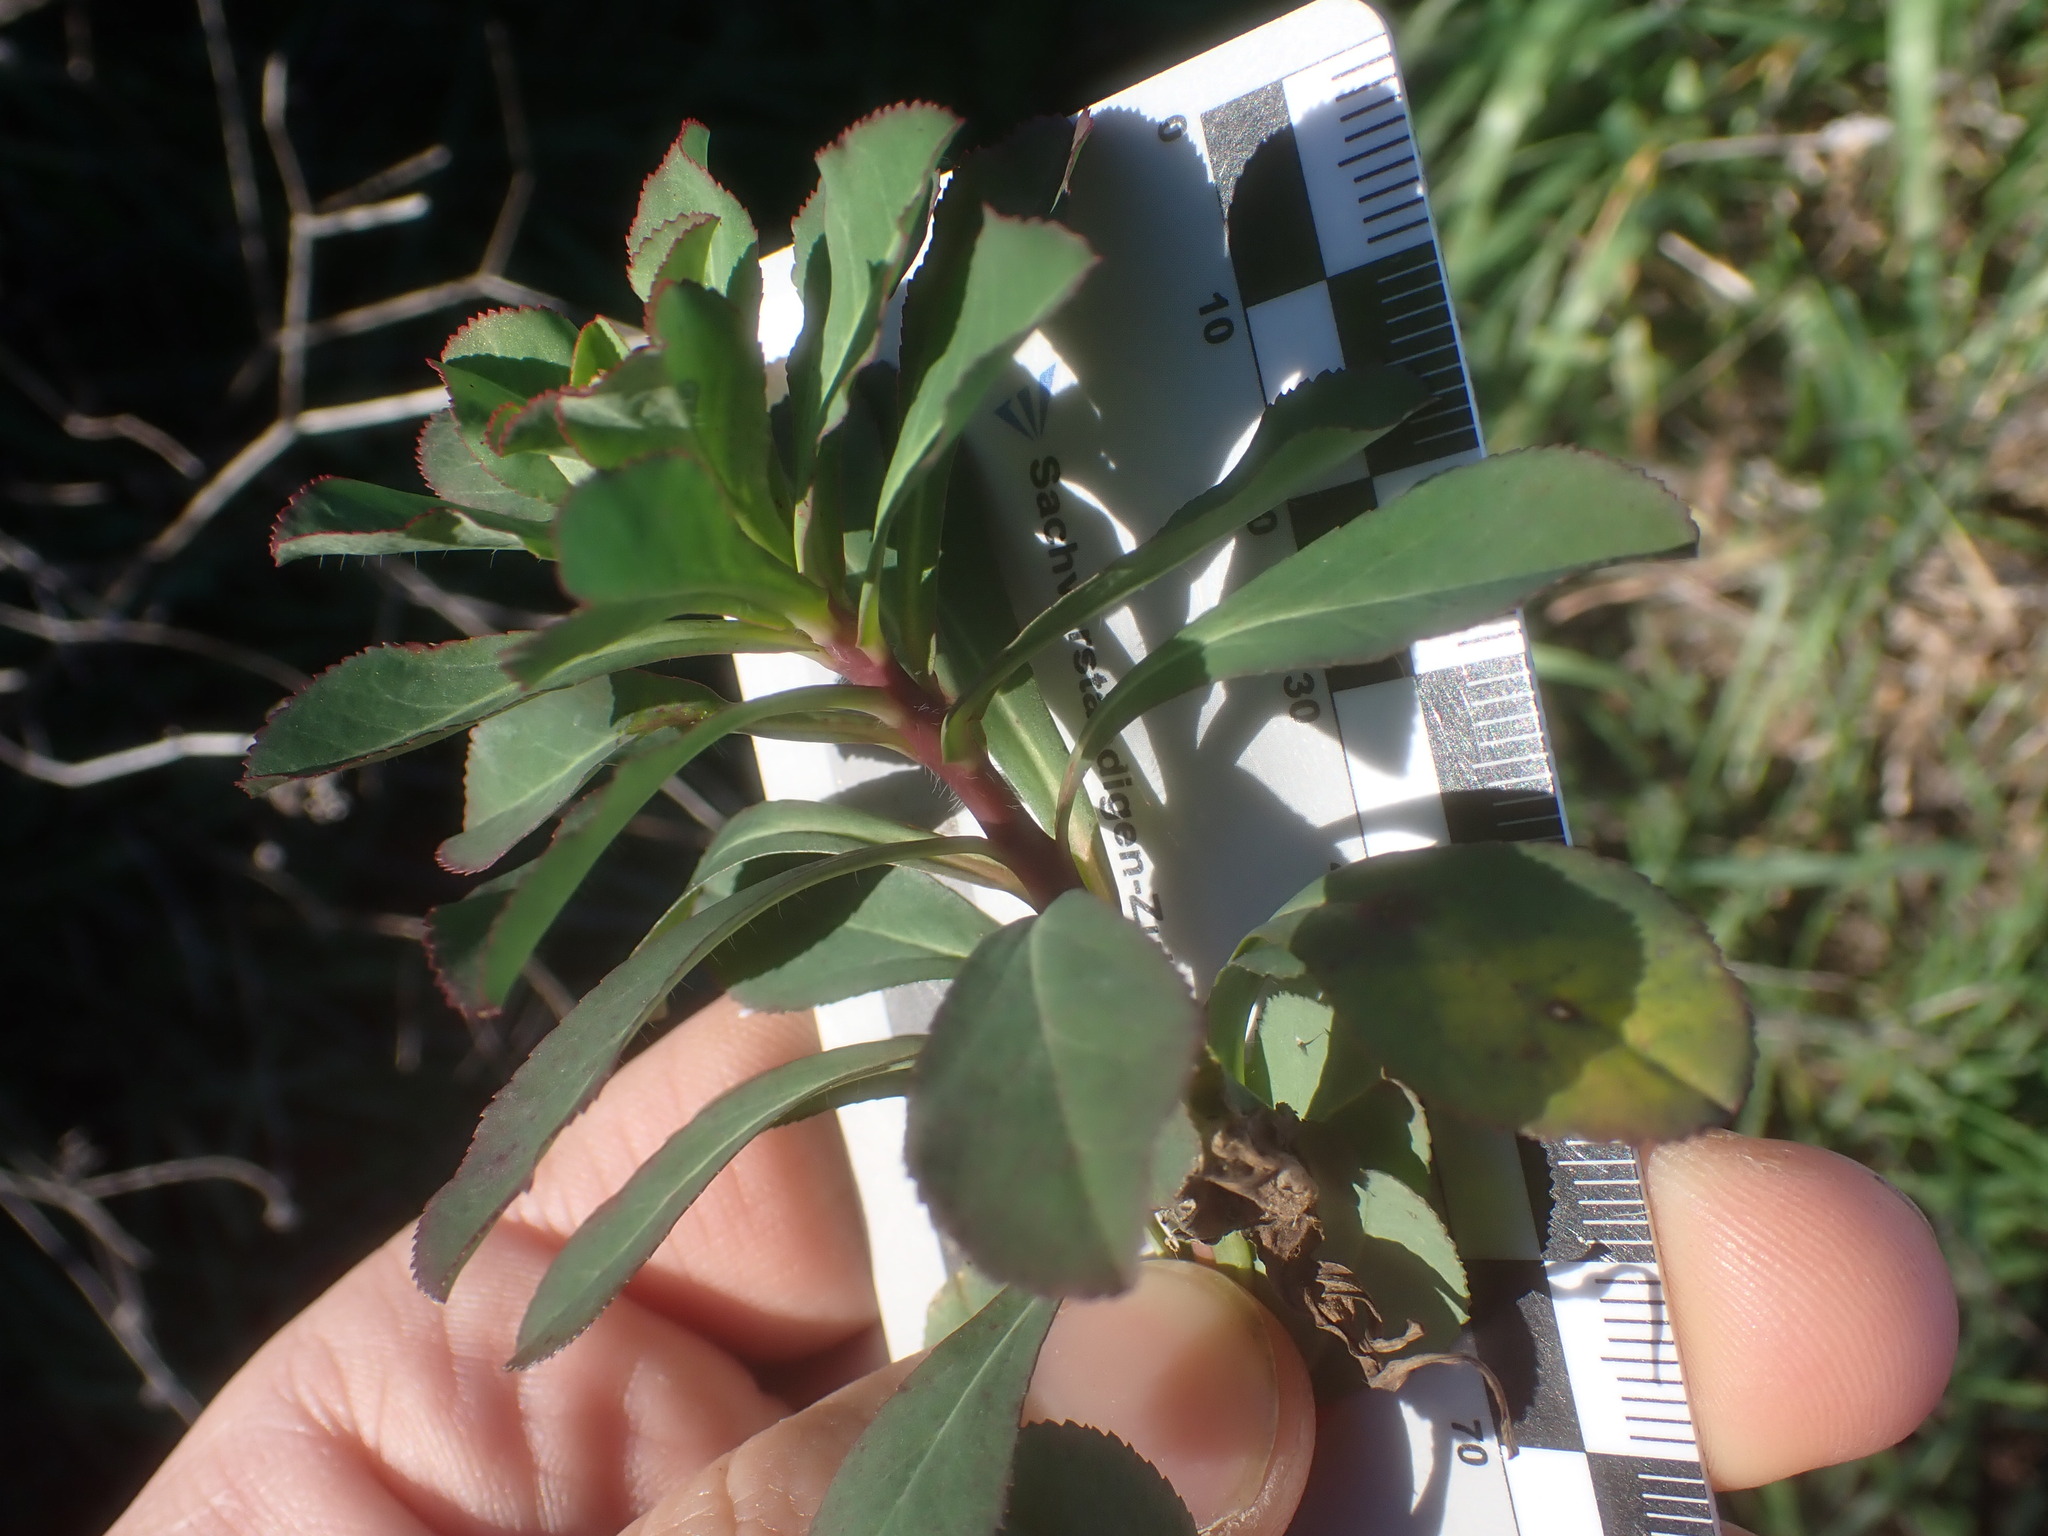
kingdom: Plantae
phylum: Tracheophyta
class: Magnoliopsida
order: Malpighiales
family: Euphorbiaceae
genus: Euphorbia
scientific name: Euphorbia helioscopia
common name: Sun spurge
